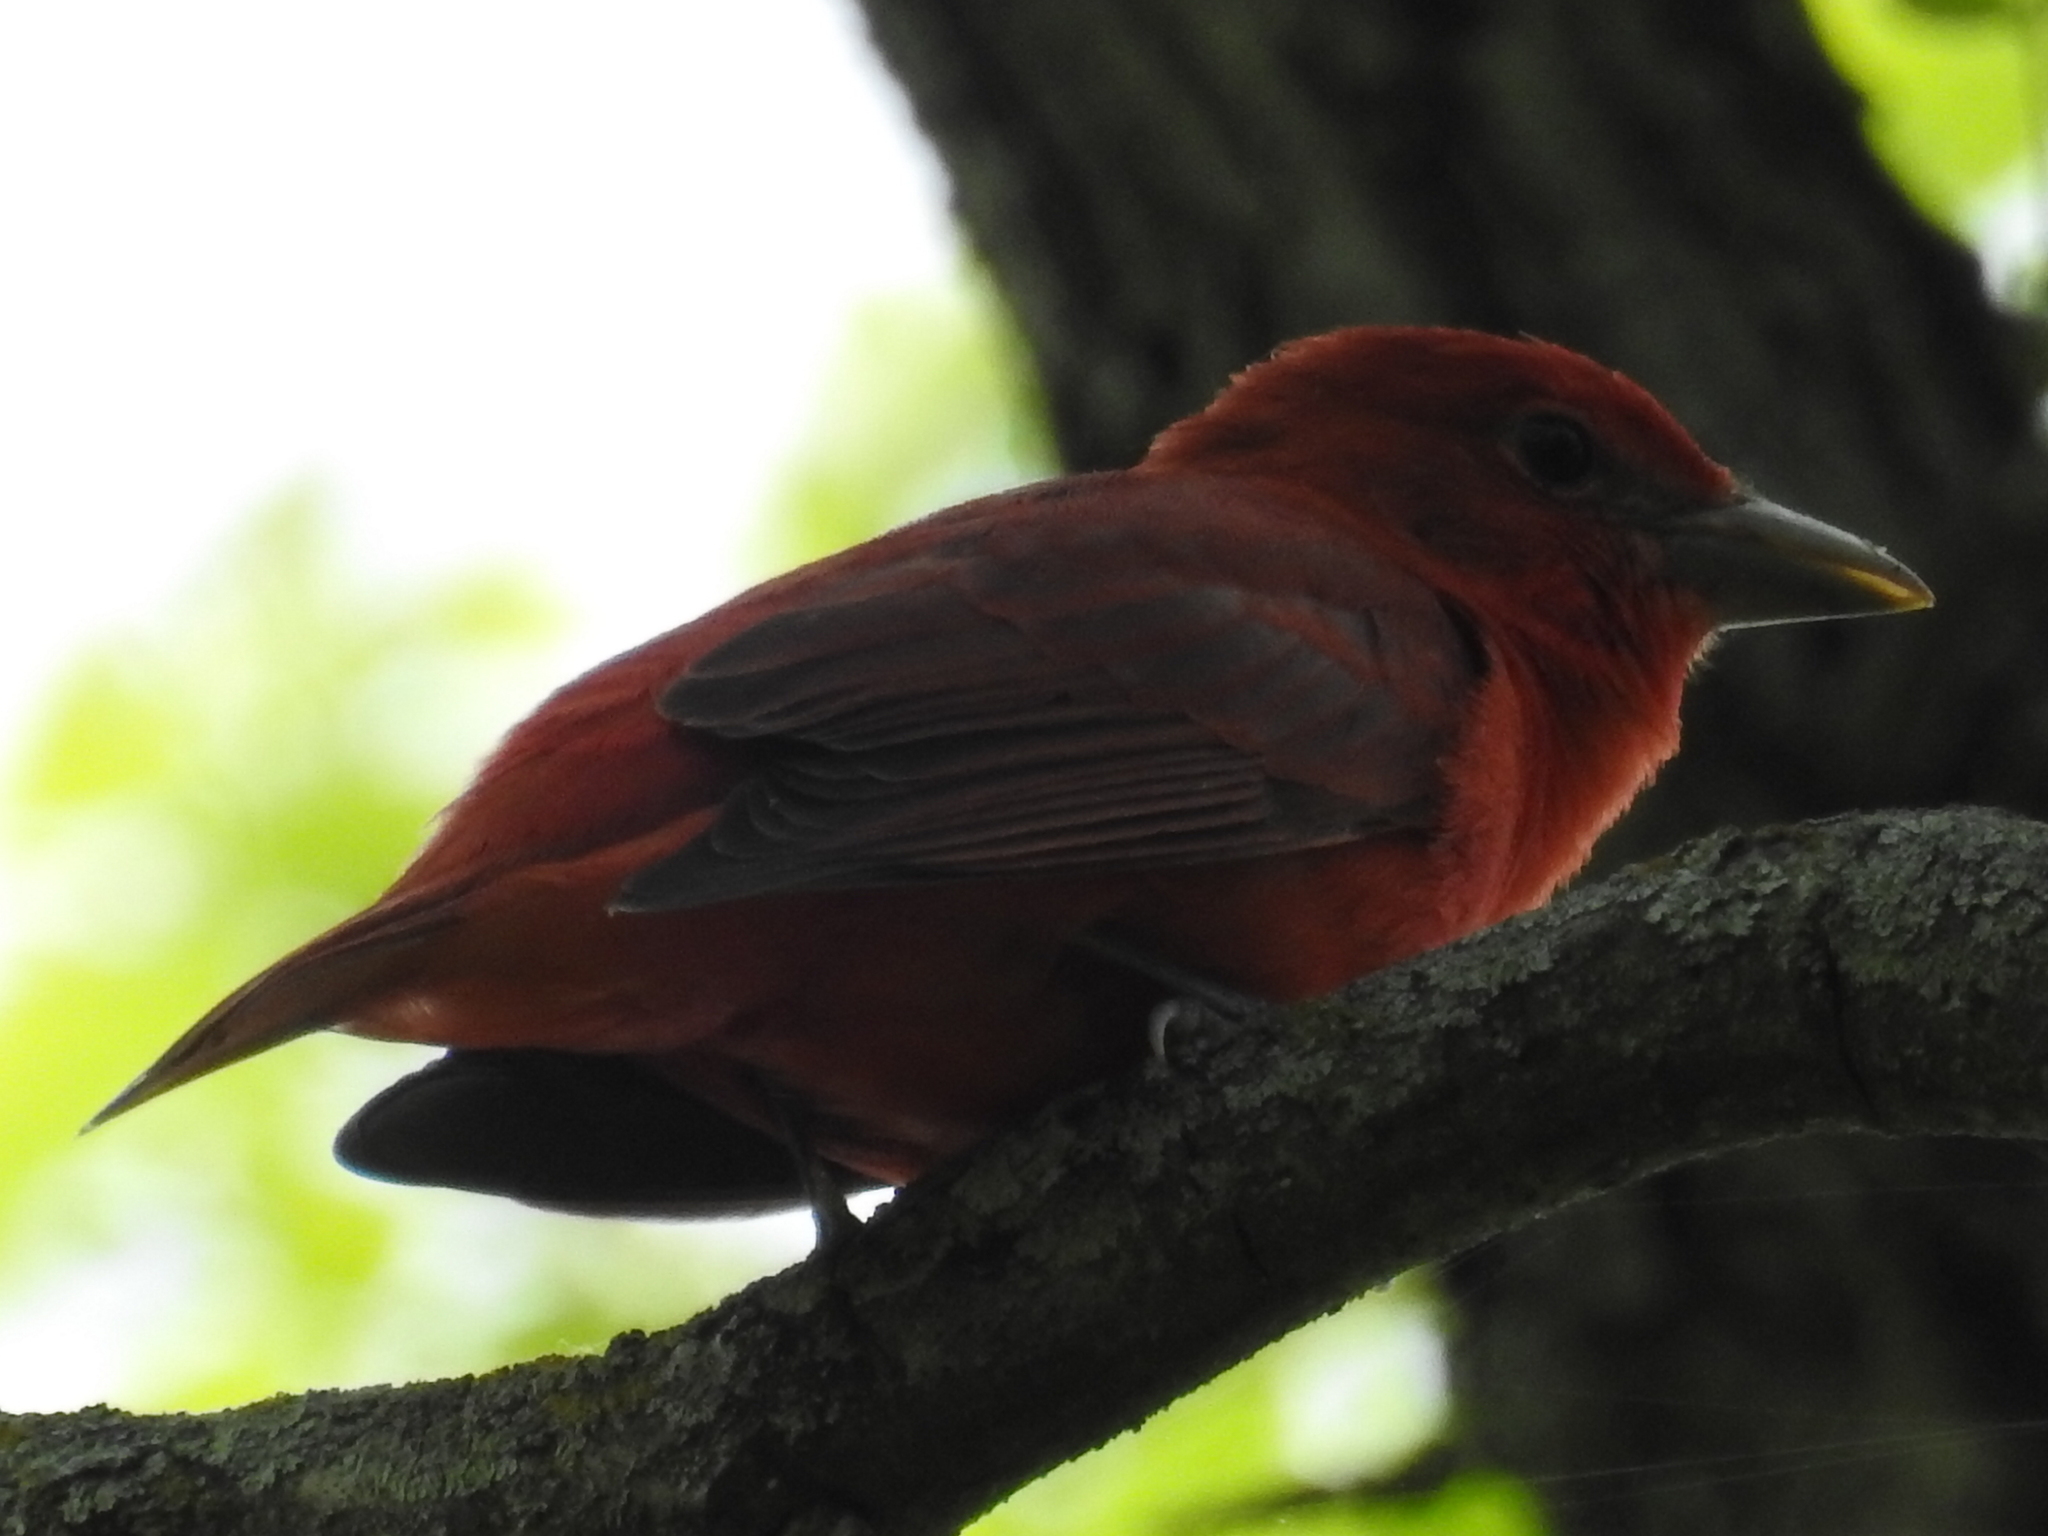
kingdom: Animalia
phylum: Chordata
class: Aves
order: Passeriformes
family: Cardinalidae
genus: Piranga
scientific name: Piranga rubra
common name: Summer tanager
